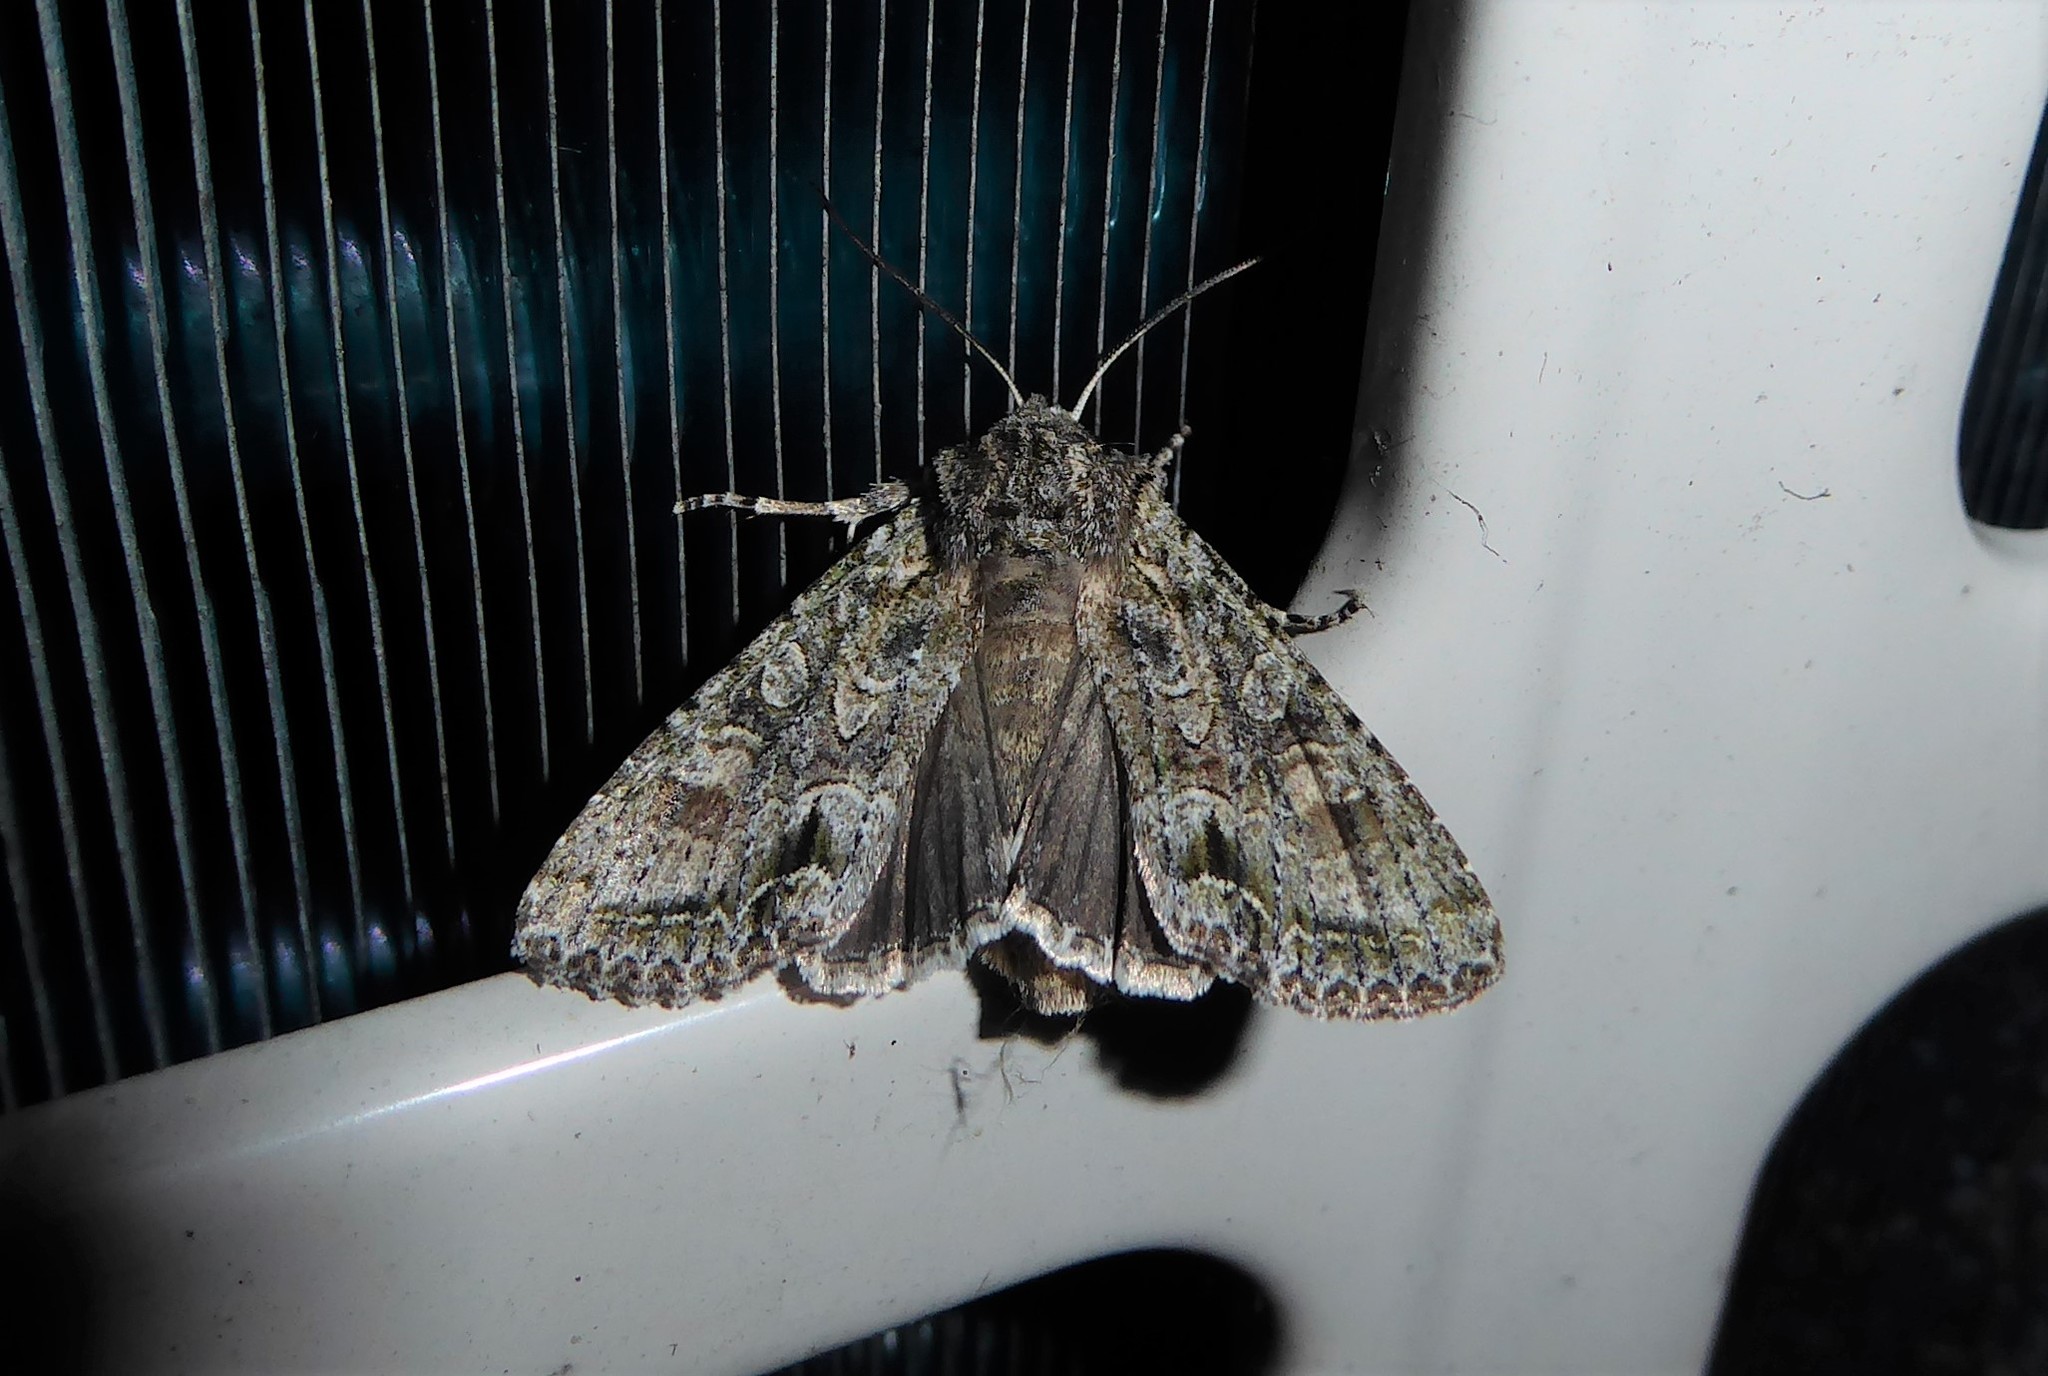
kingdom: Animalia
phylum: Arthropoda
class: Insecta
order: Lepidoptera
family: Noctuidae
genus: Ichneutica
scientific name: Ichneutica mutans
